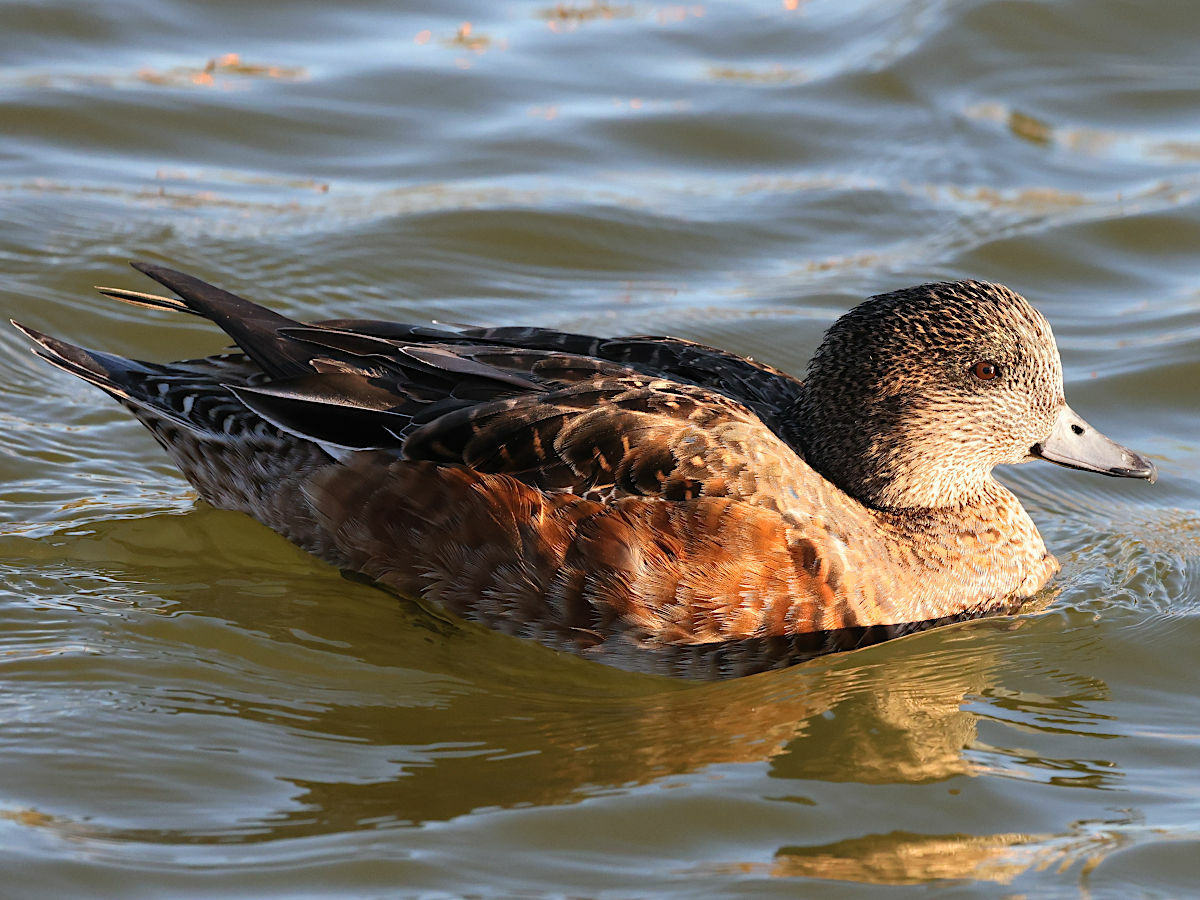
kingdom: Animalia
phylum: Chordata
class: Aves
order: Anseriformes
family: Anatidae
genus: Mareca
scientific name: Mareca americana
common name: American wigeon
